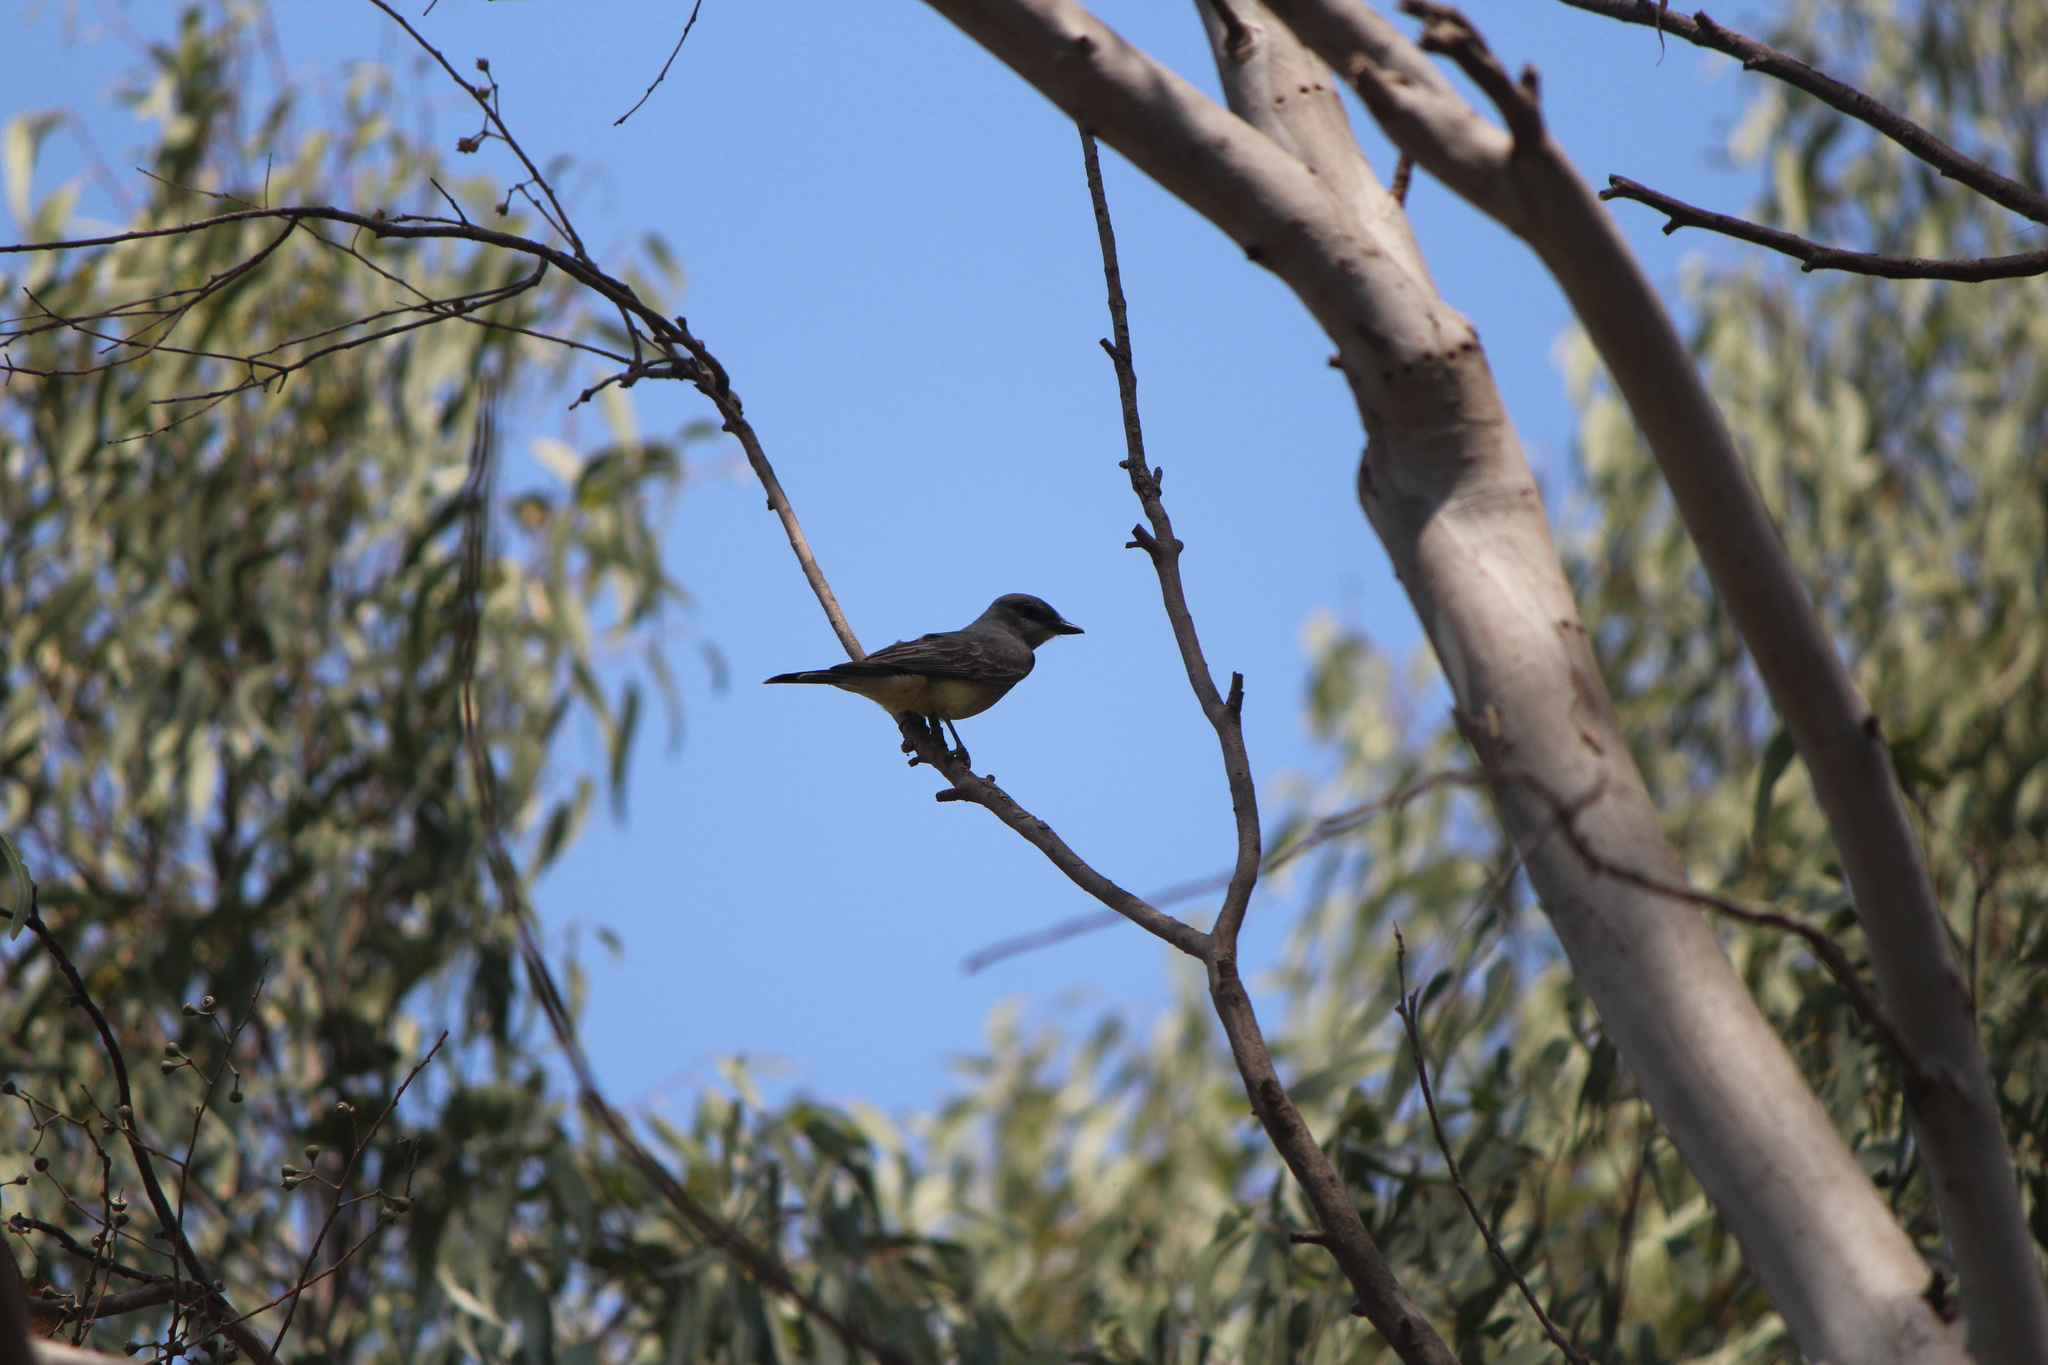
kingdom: Animalia
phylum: Chordata
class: Aves
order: Passeriformes
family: Tyrannidae
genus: Tyrannus
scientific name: Tyrannus vociferans
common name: Cassin's kingbird
